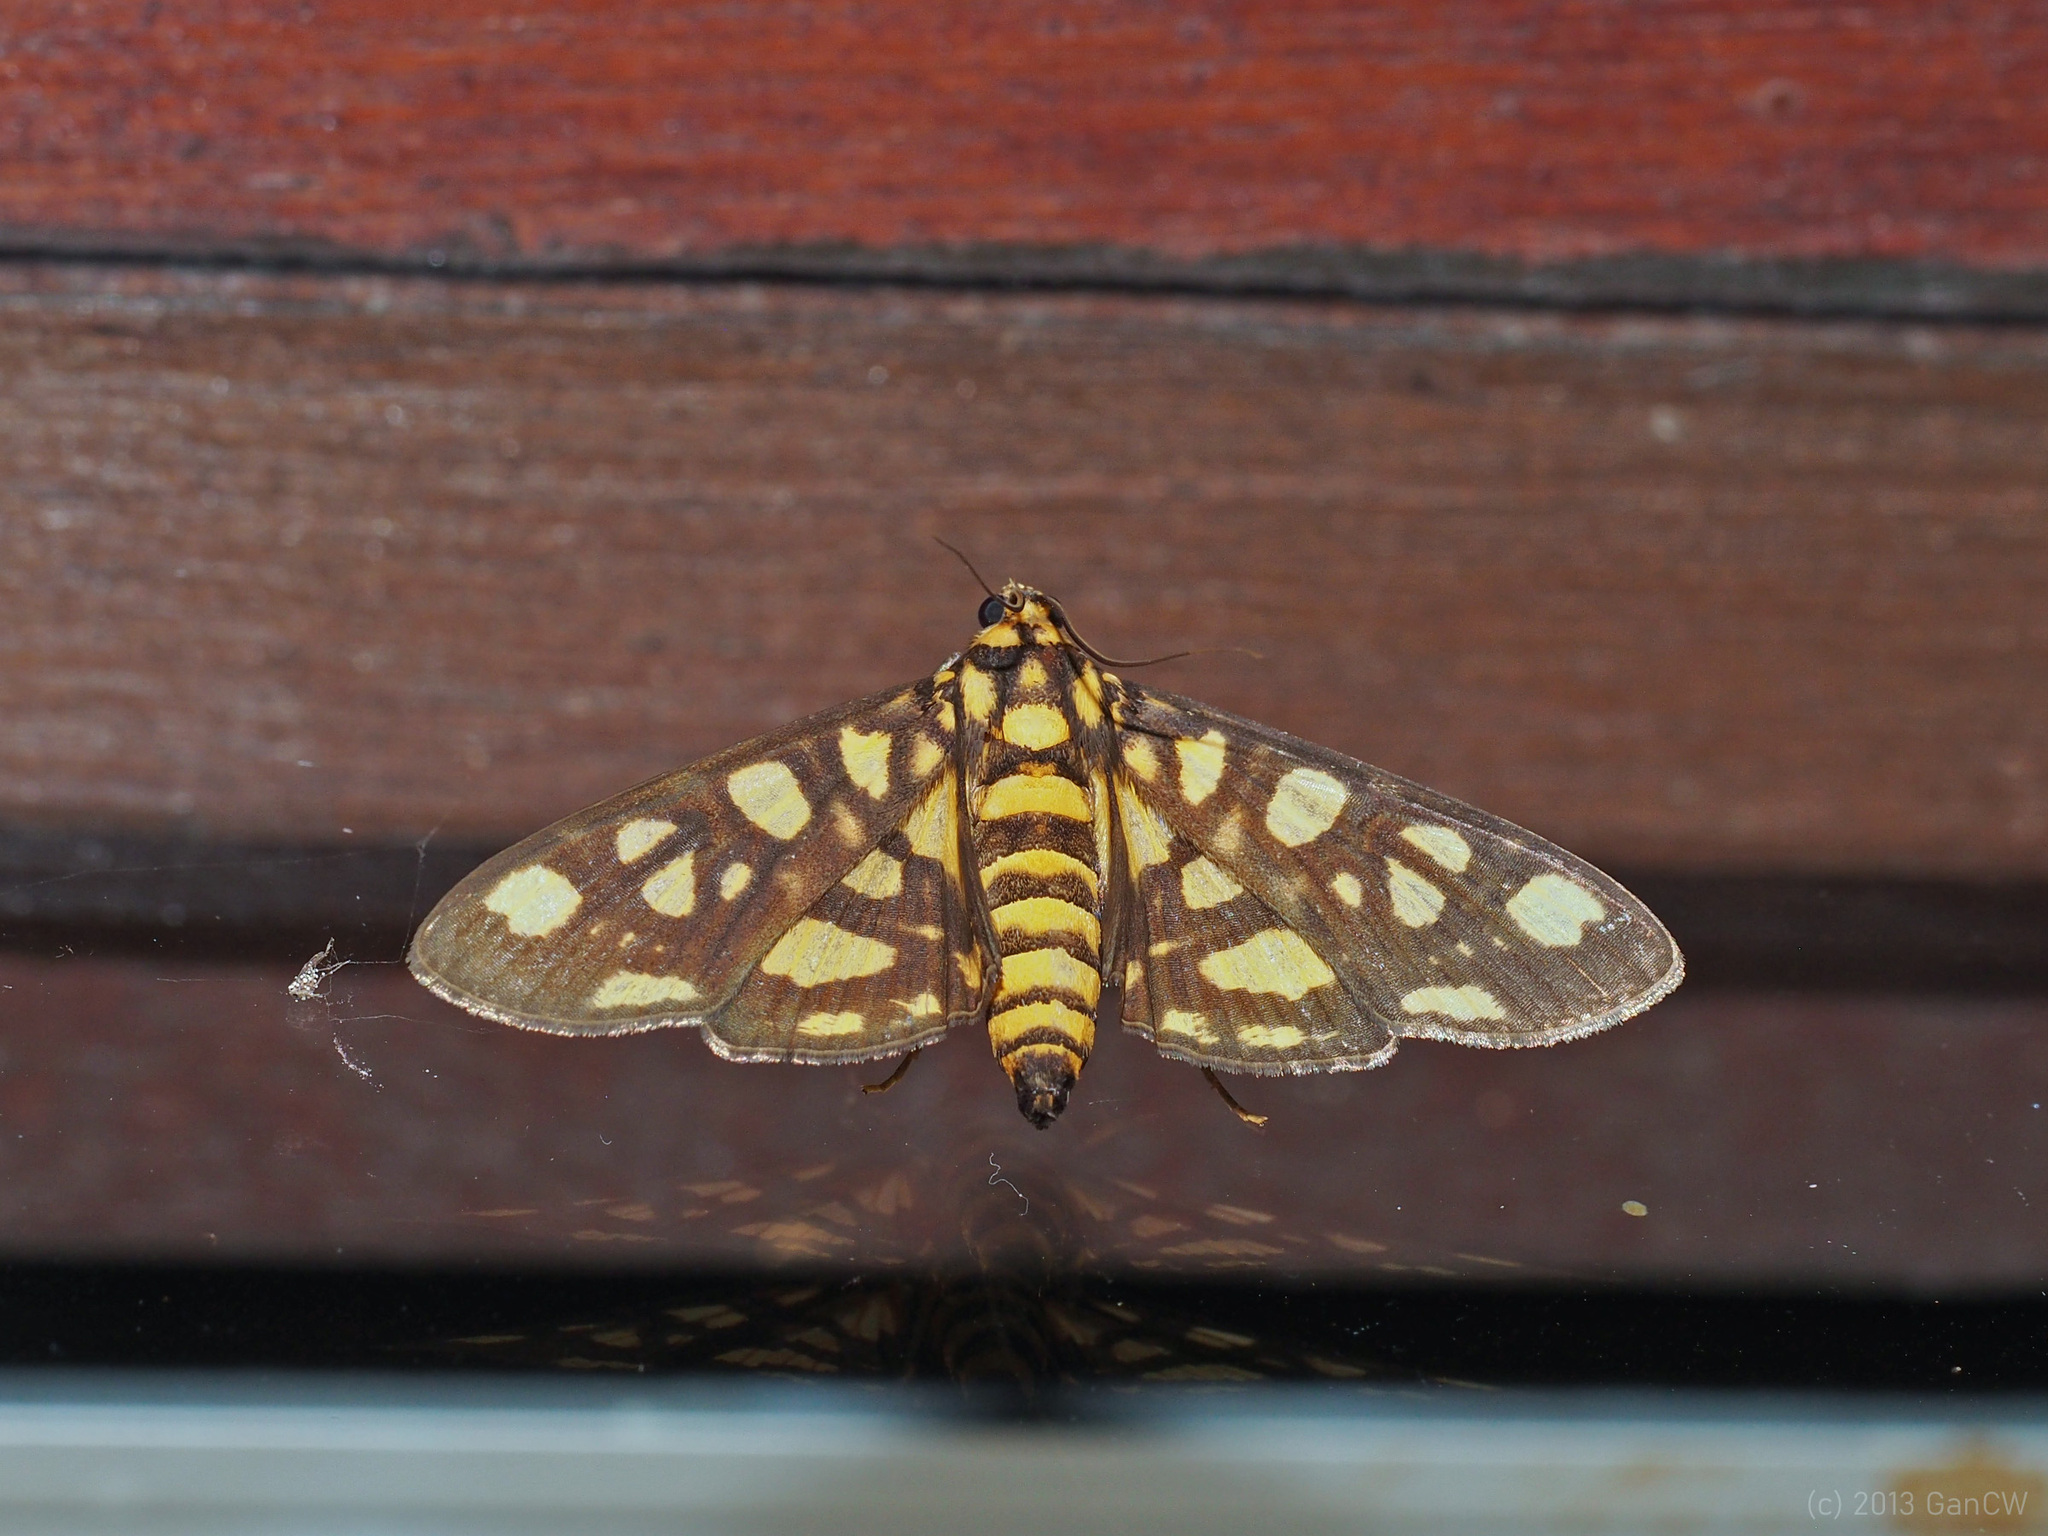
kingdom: Animalia
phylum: Arthropoda
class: Insecta
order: Lepidoptera
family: Crambidae
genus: Glyphodes
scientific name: Glyphodes militaris
